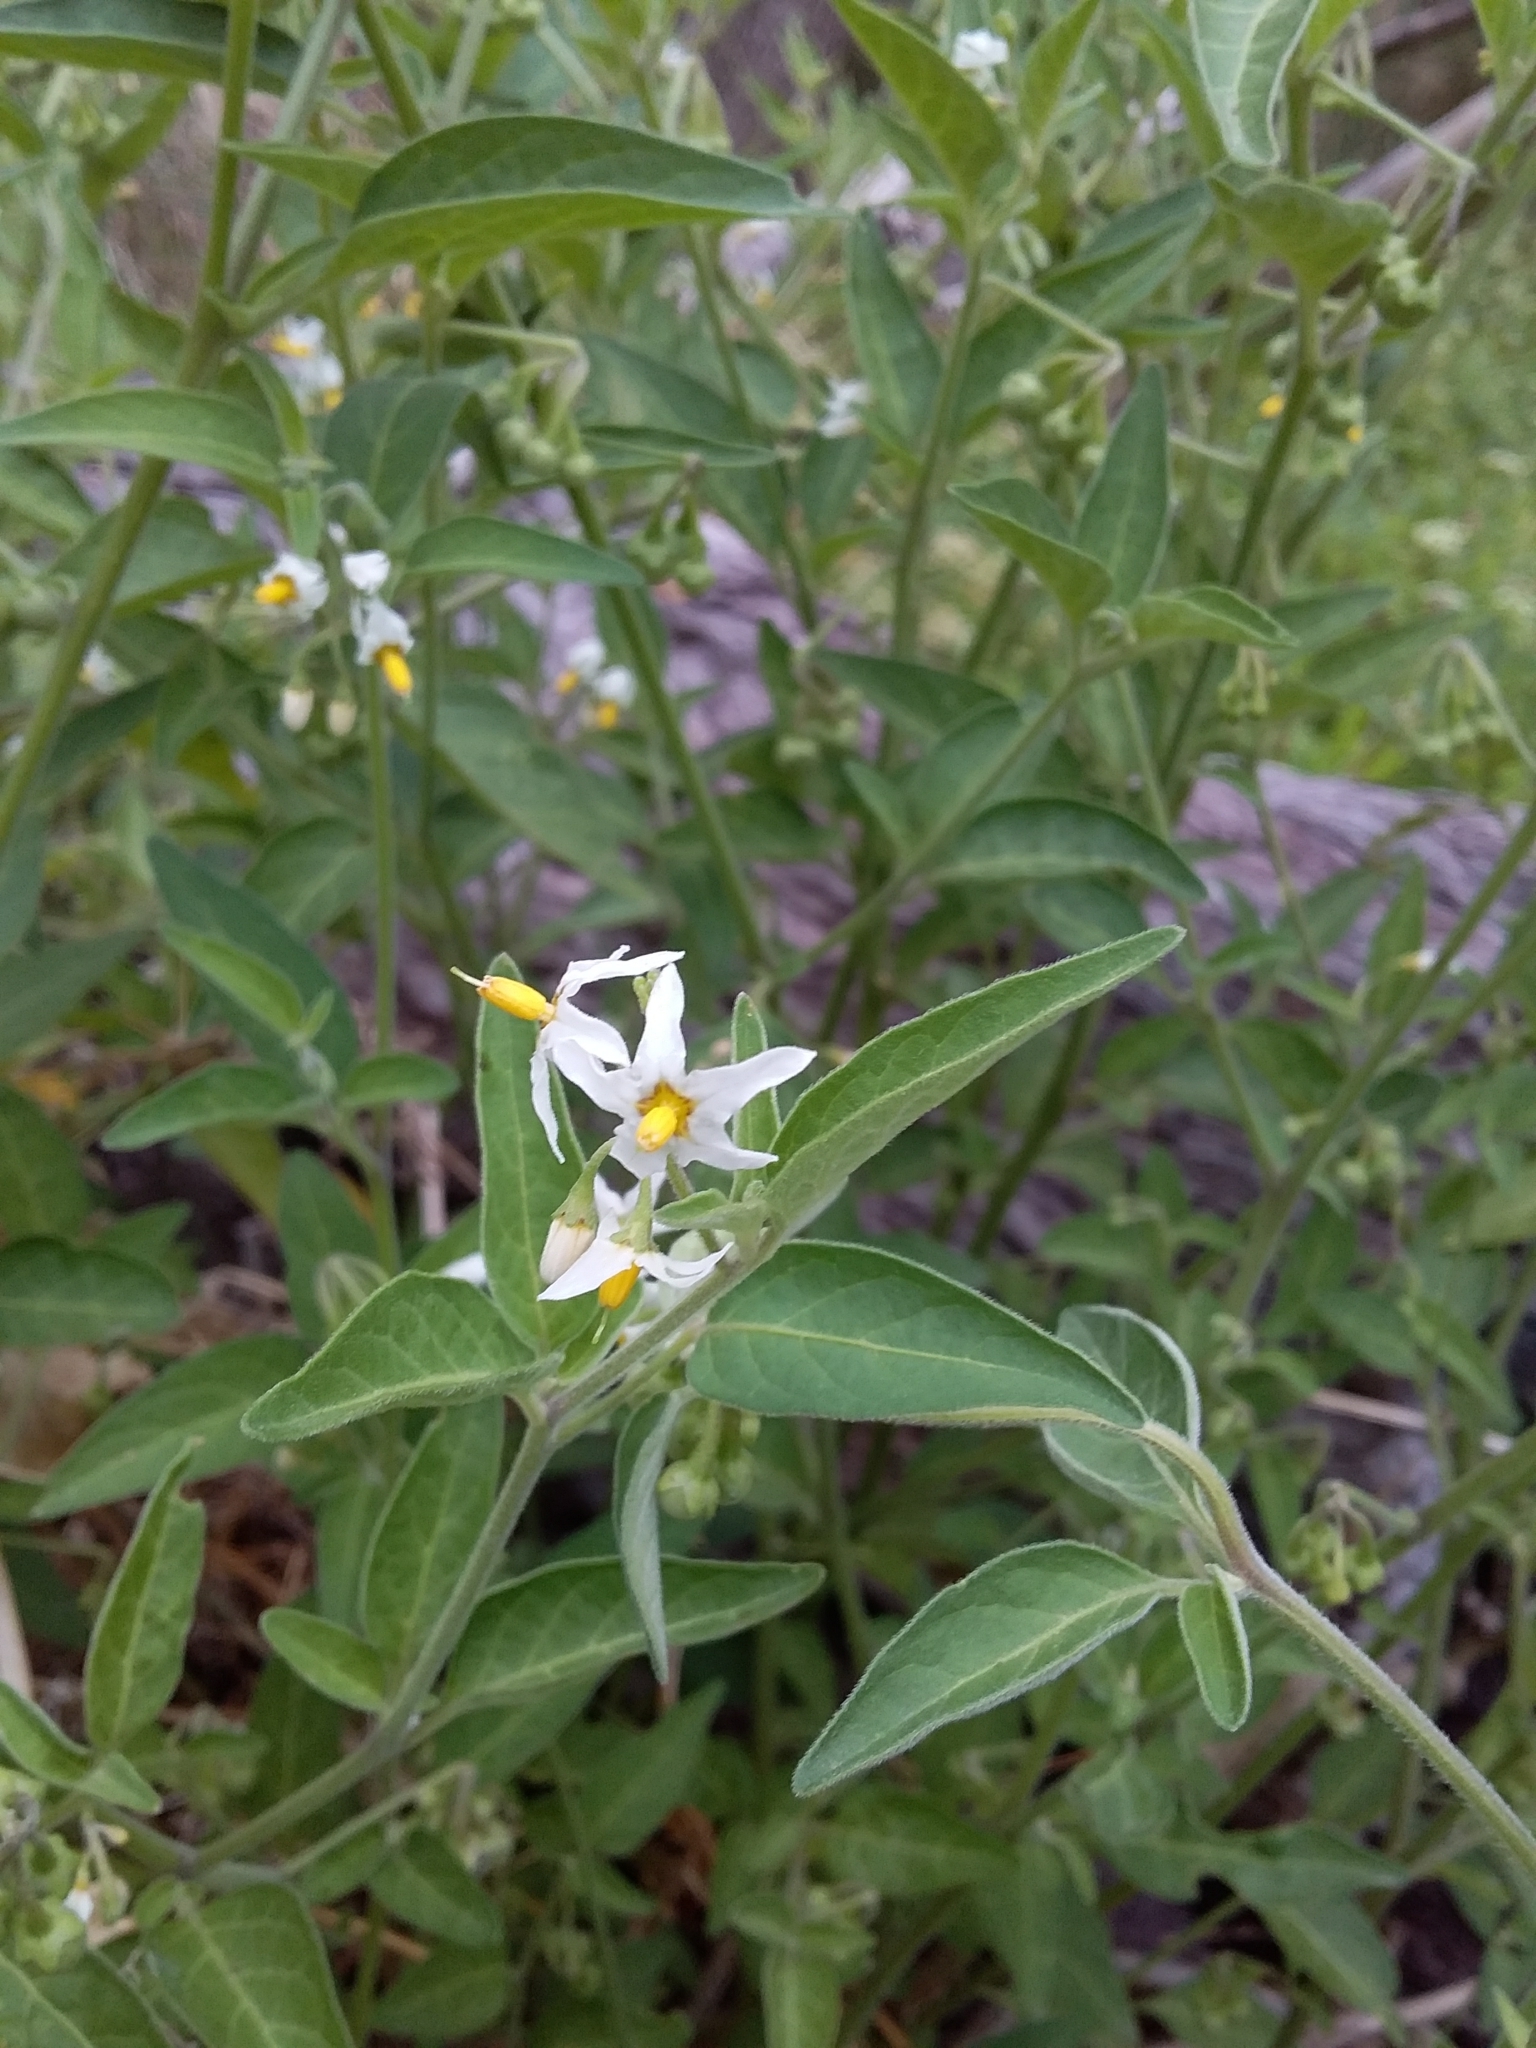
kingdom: Plantae
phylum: Tracheophyta
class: Magnoliopsida
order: Solanales
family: Solanaceae
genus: Solanum
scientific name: Solanum chenopodioides
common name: Tall nightshade
